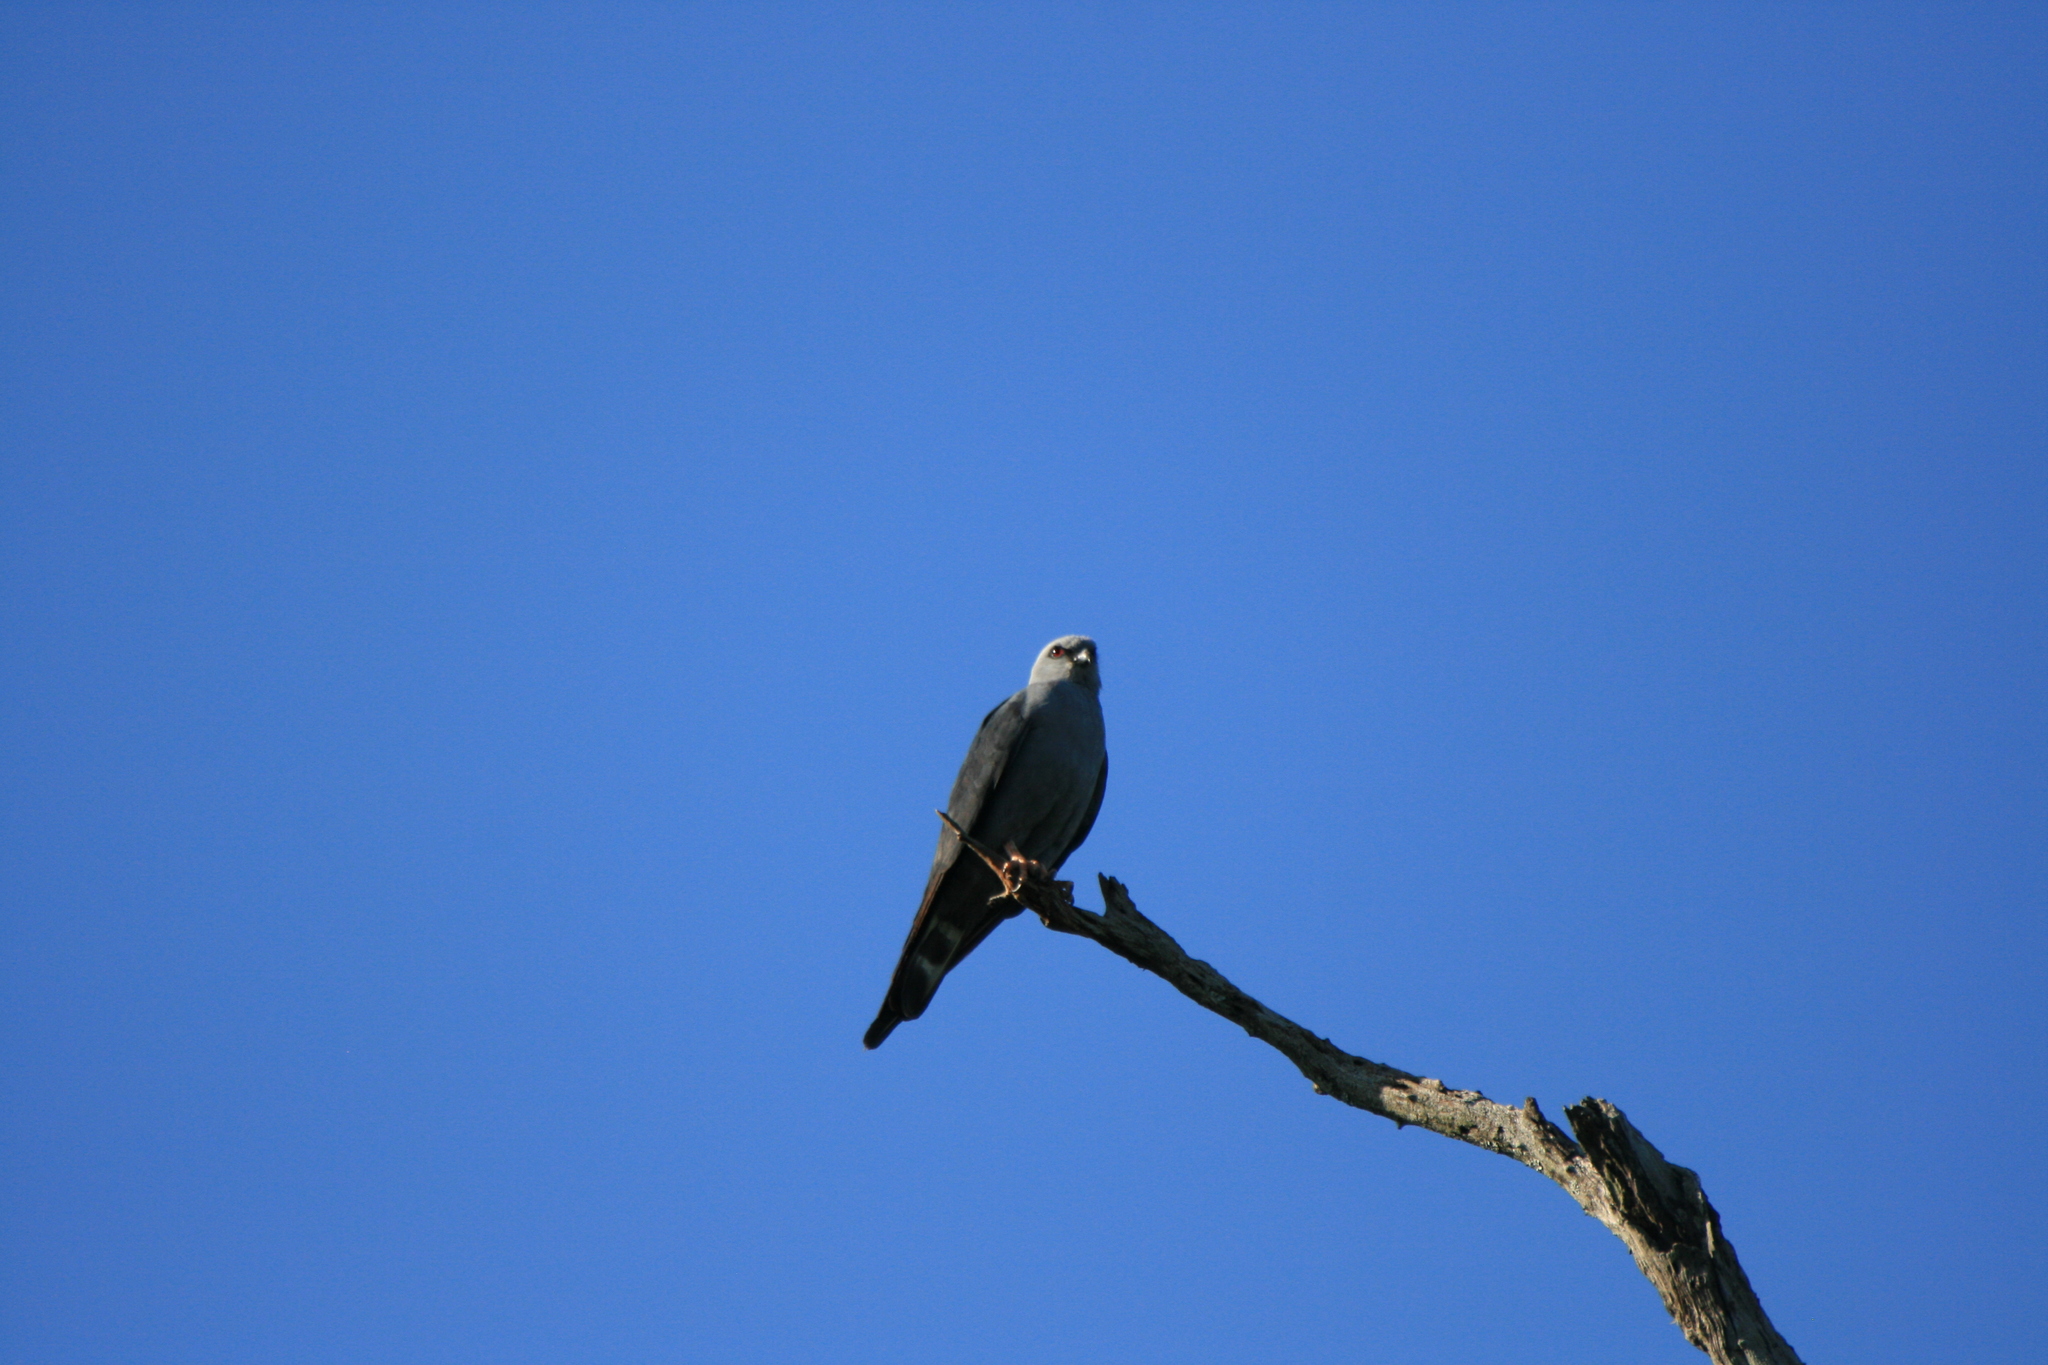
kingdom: Animalia
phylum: Chordata
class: Aves
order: Accipitriformes
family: Accipitridae
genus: Ictinia
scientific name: Ictinia plumbea
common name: Plumbeous kite
